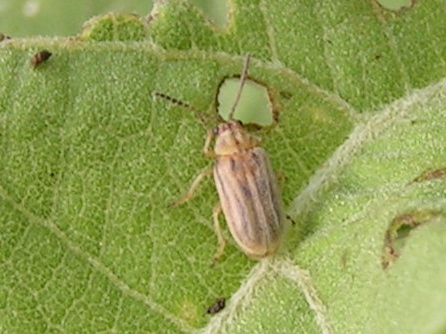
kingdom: Animalia
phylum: Arthropoda
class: Insecta
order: Coleoptera
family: Chrysomelidae
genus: Galerucini
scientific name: Galerucini
